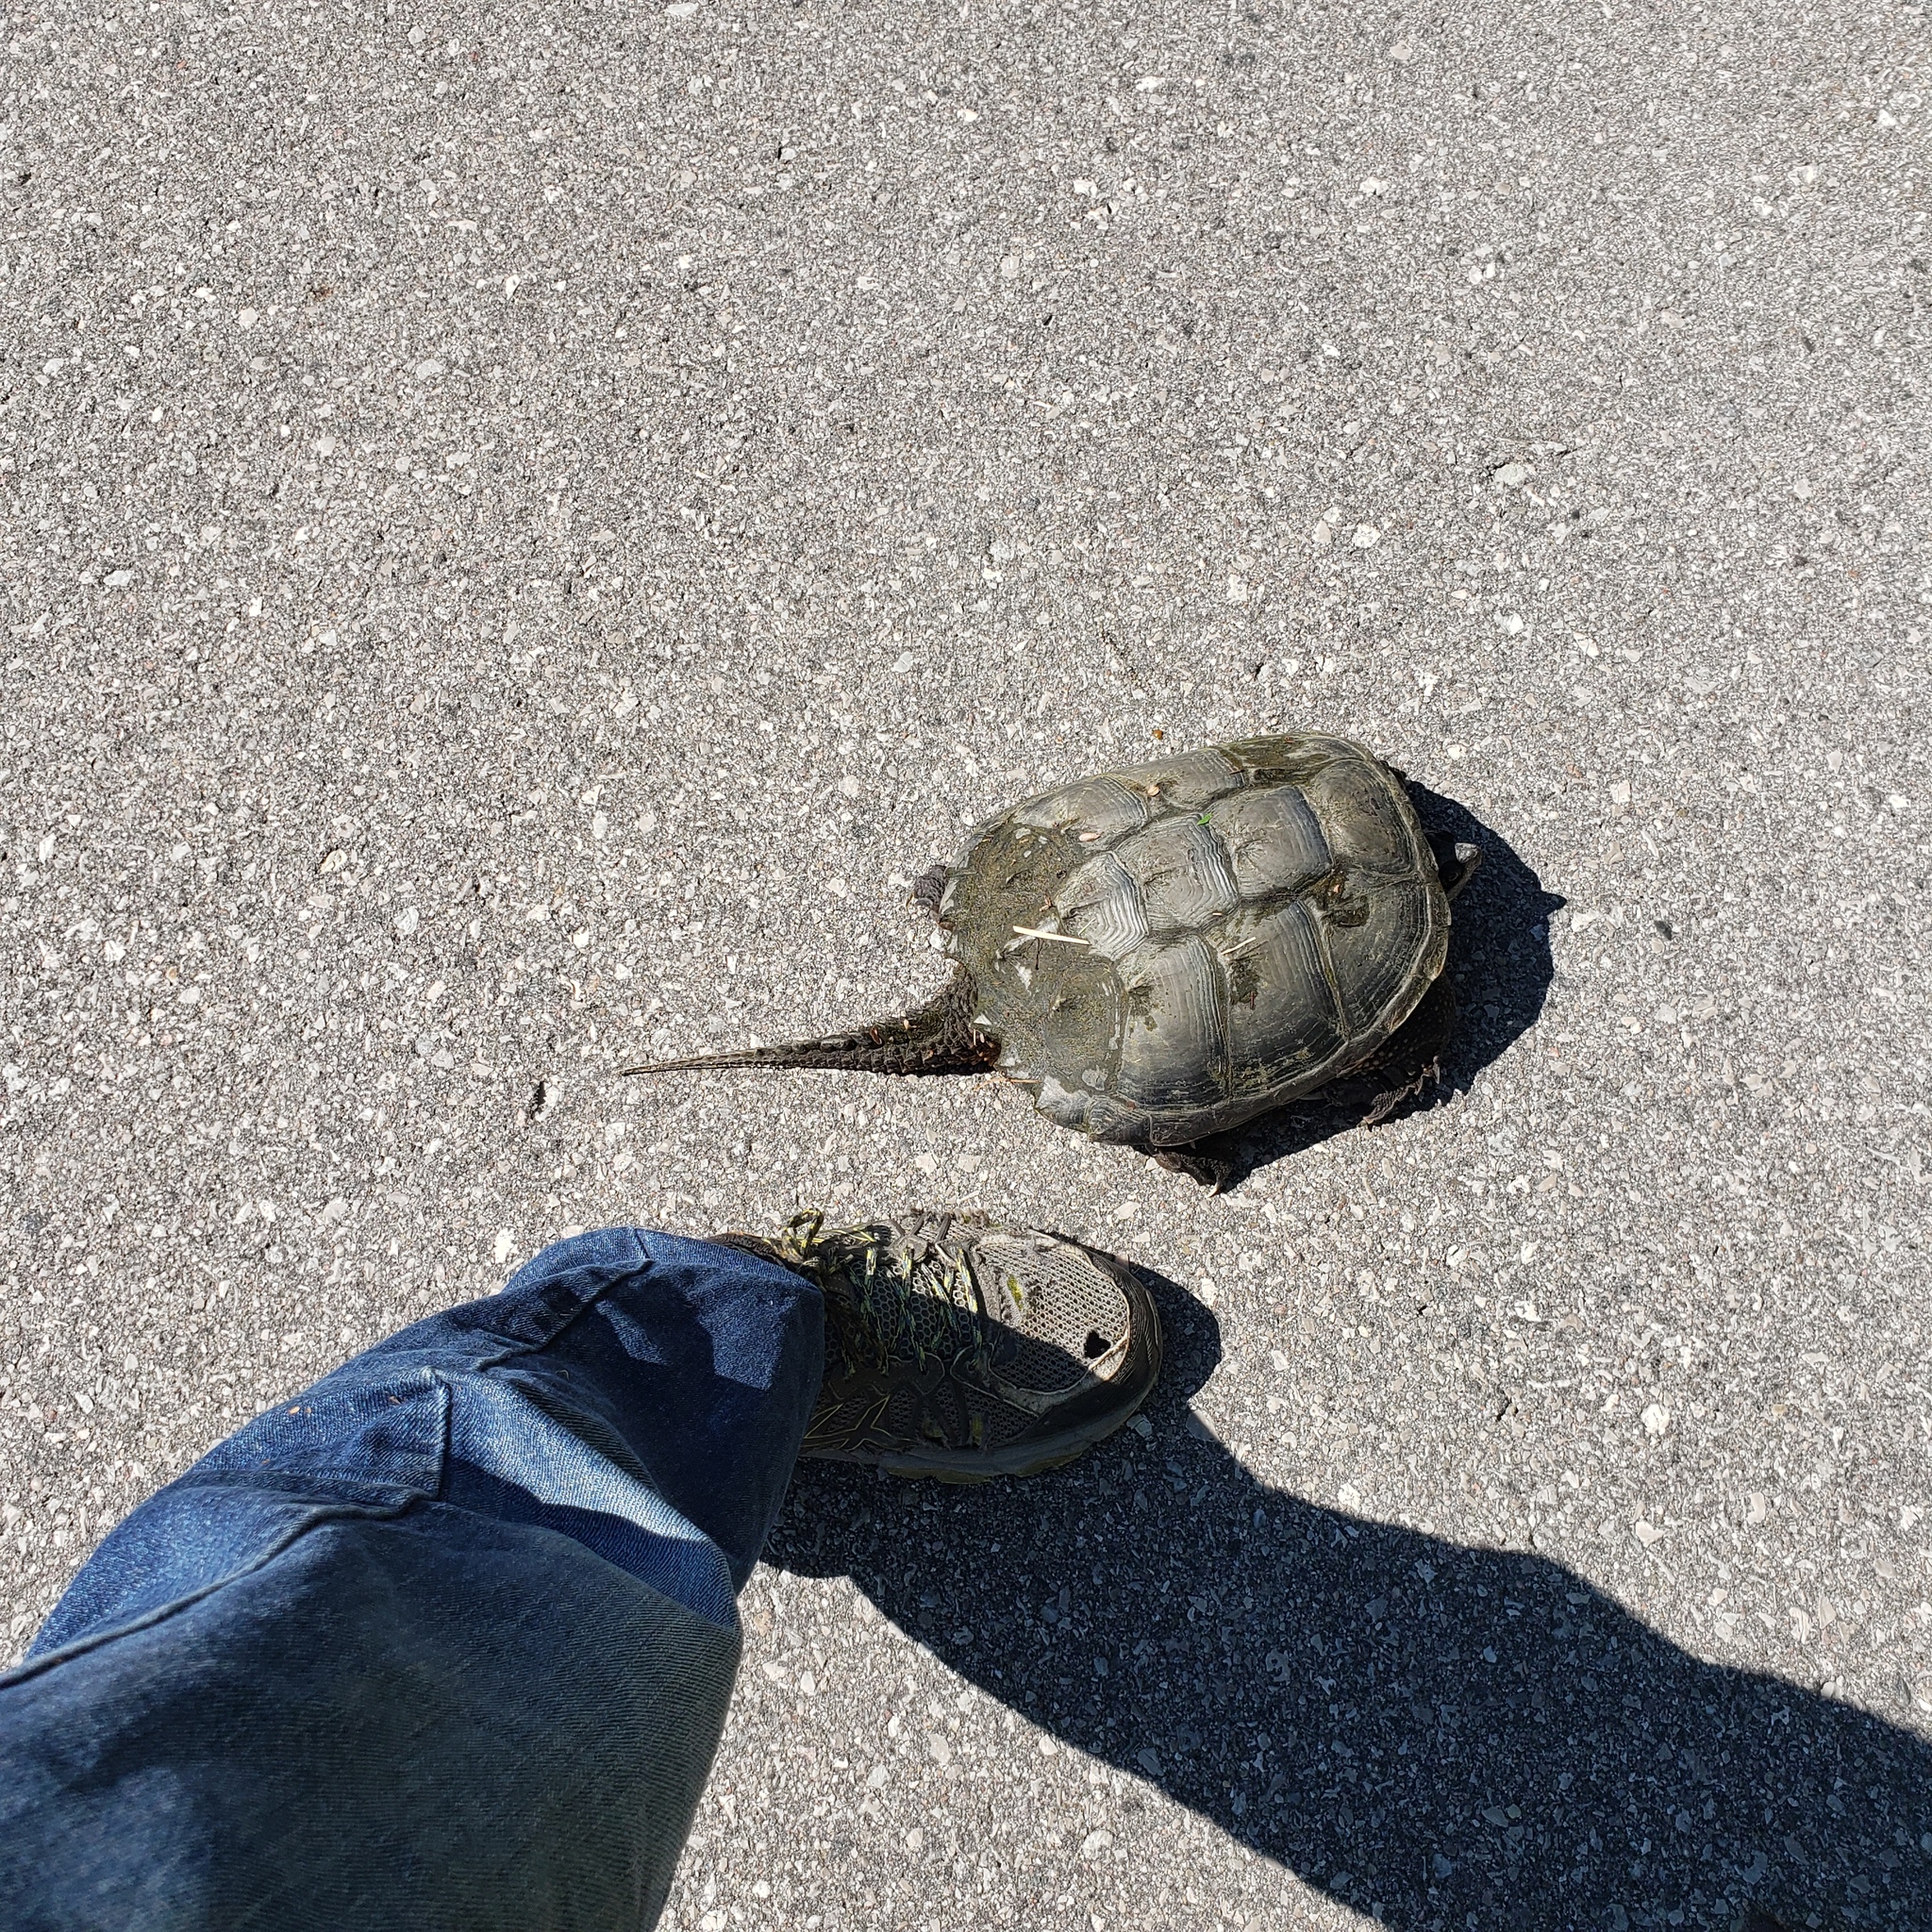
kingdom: Animalia
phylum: Chordata
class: Testudines
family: Chelydridae
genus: Chelydra
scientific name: Chelydra serpentina
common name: Common snapping turtle
